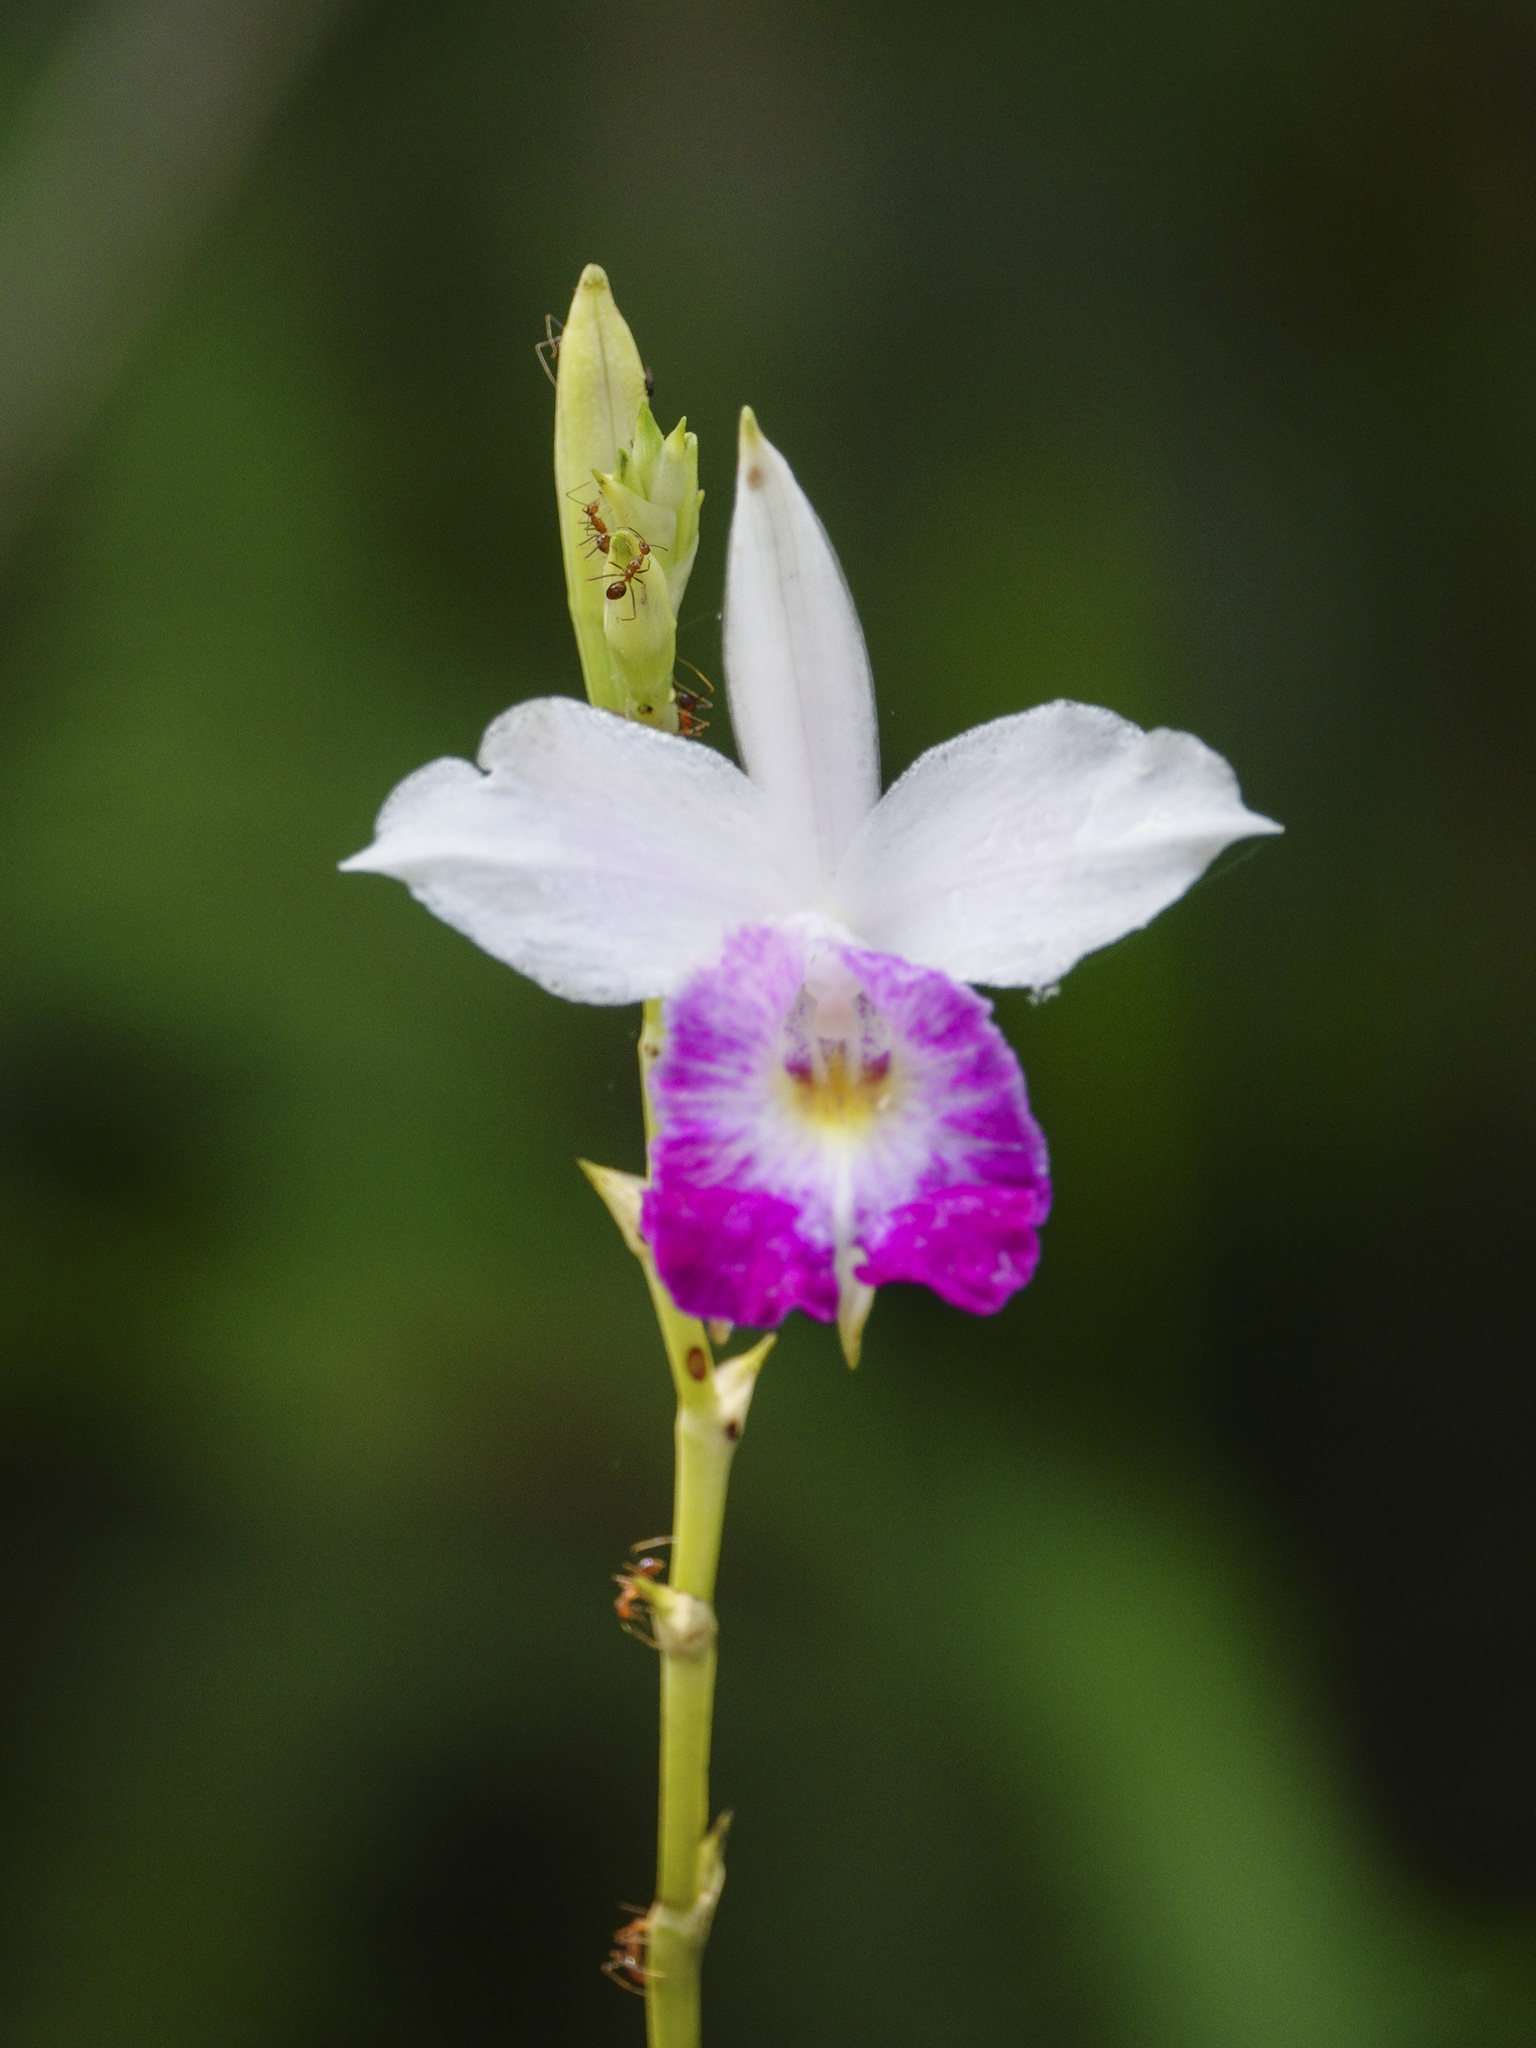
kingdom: Plantae
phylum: Tracheophyta
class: Liliopsida
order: Asparagales
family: Orchidaceae
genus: Arundina
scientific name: Arundina graminifolia
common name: Bamboo orchid
